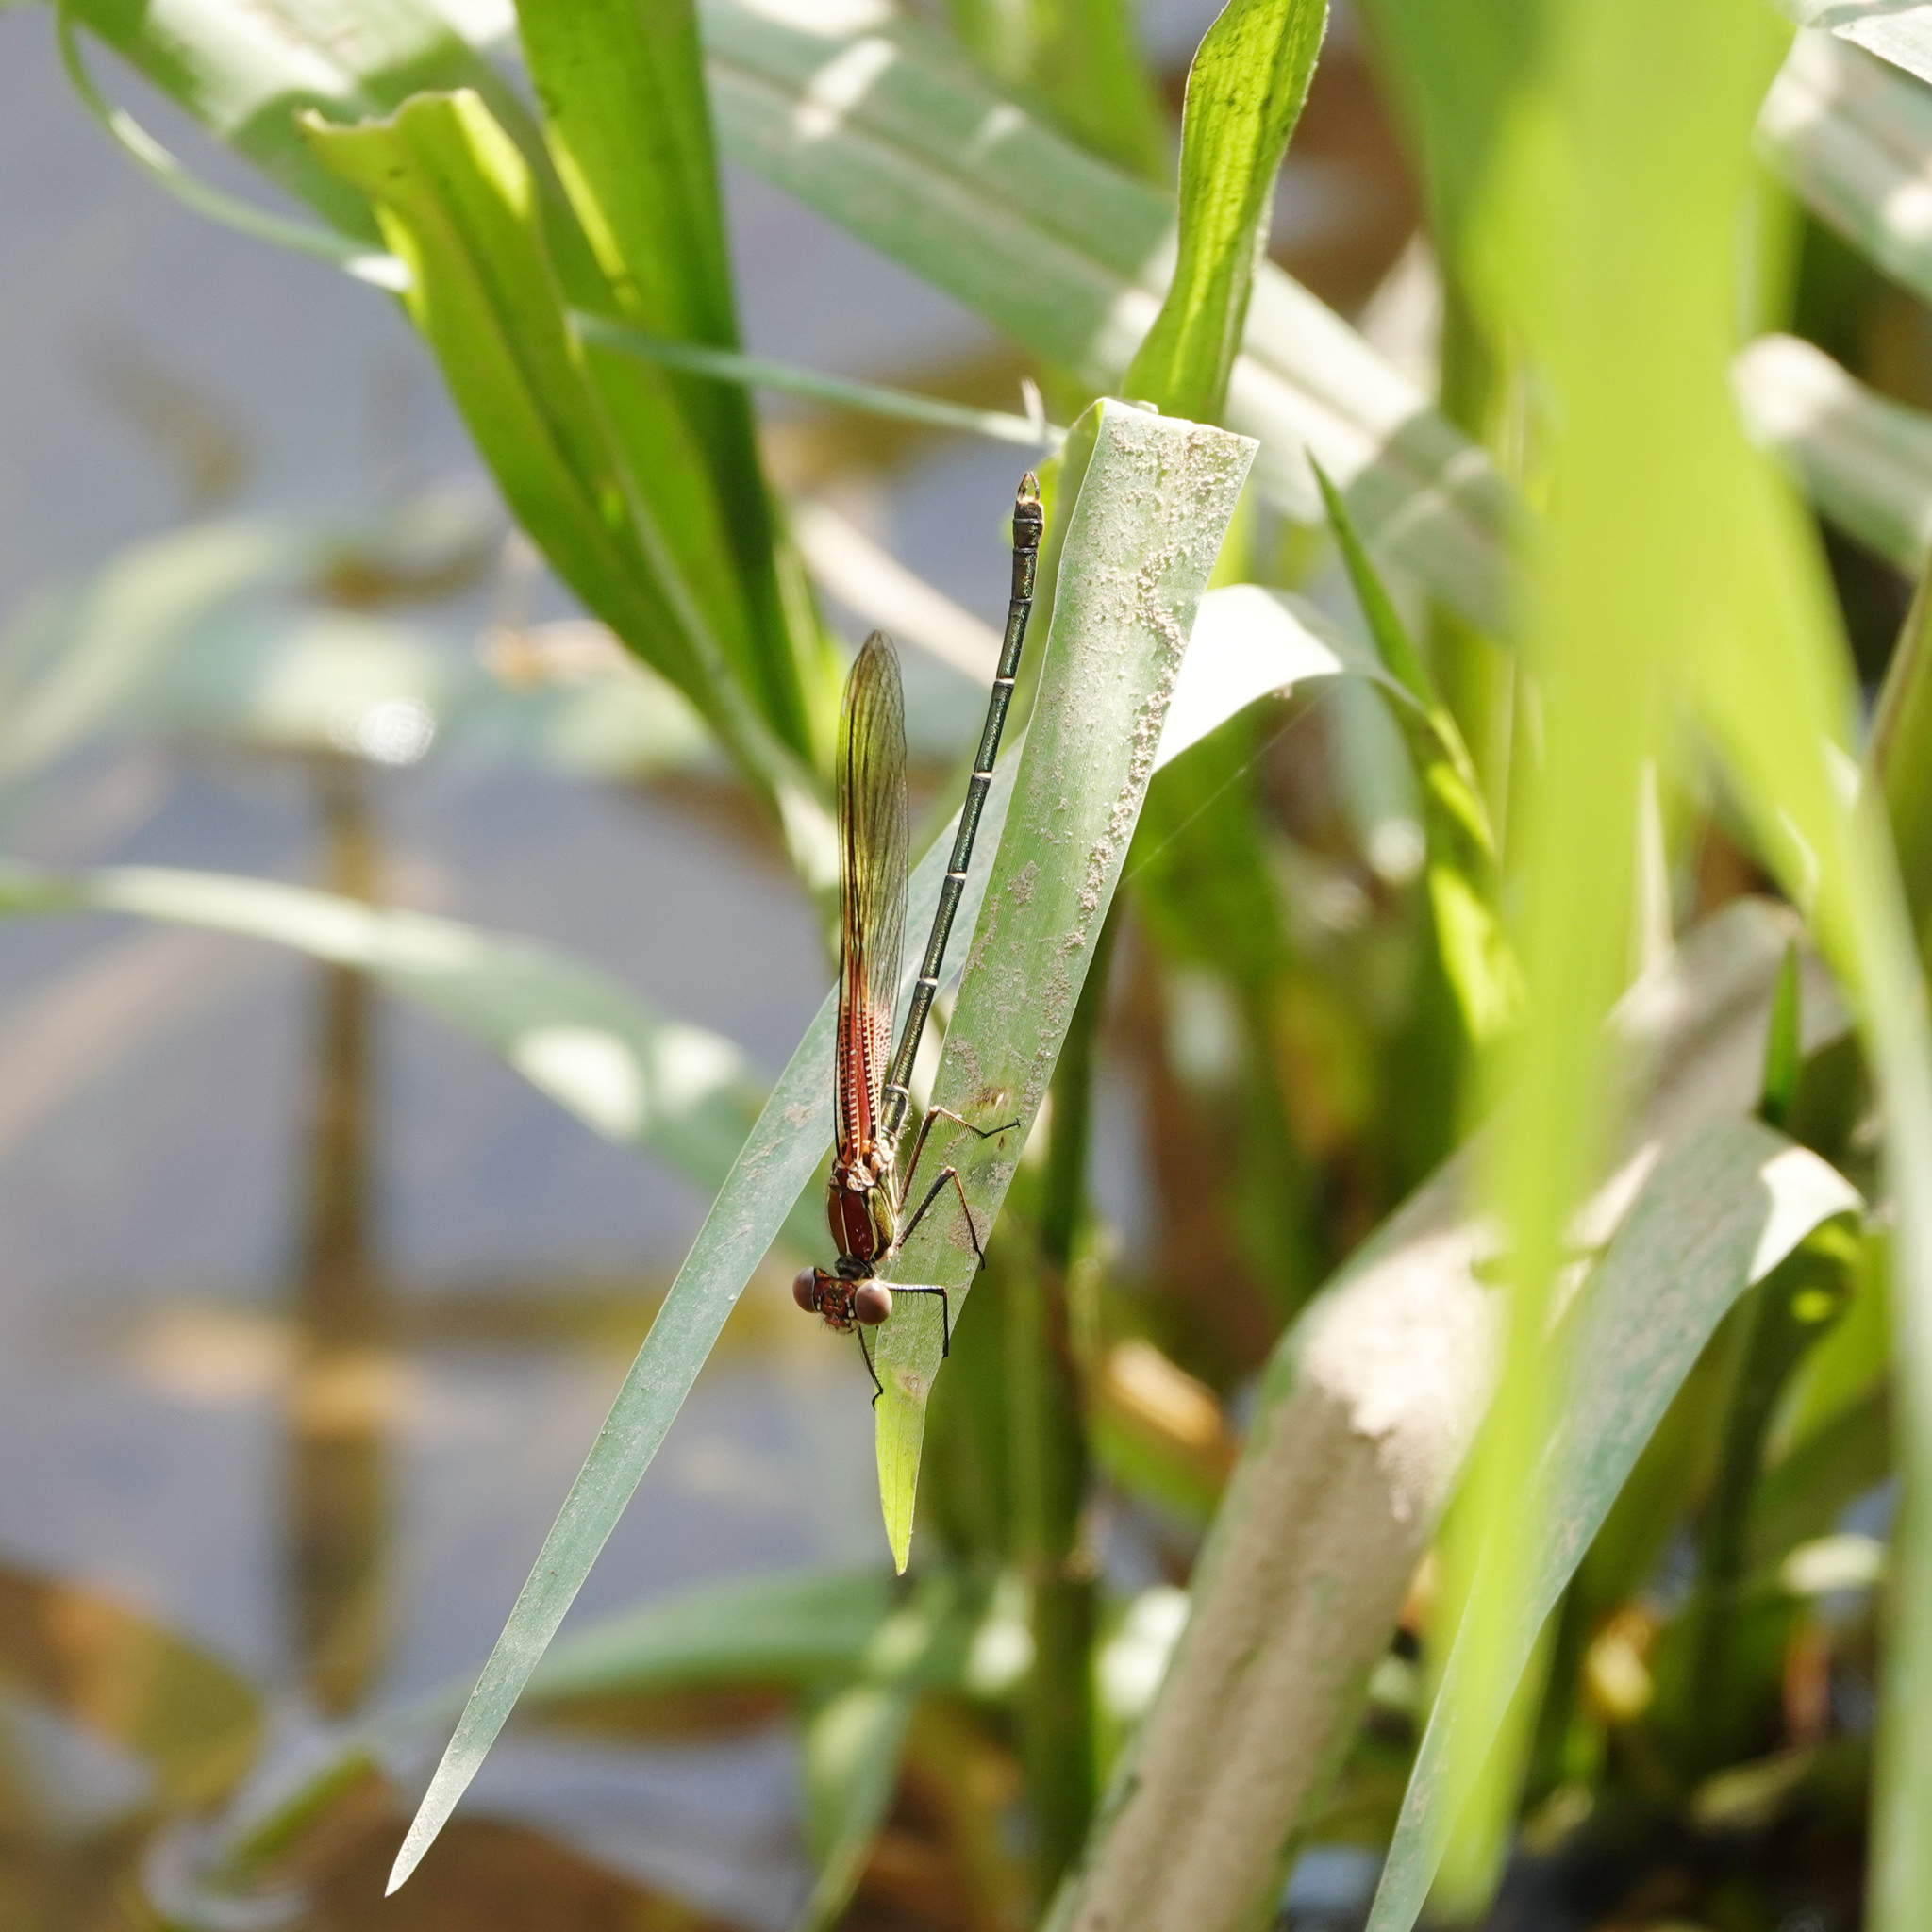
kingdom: Animalia
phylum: Arthropoda
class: Insecta
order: Odonata
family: Calopterygidae
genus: Hetaerina
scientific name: Hetaerina americana
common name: American rubyspot
